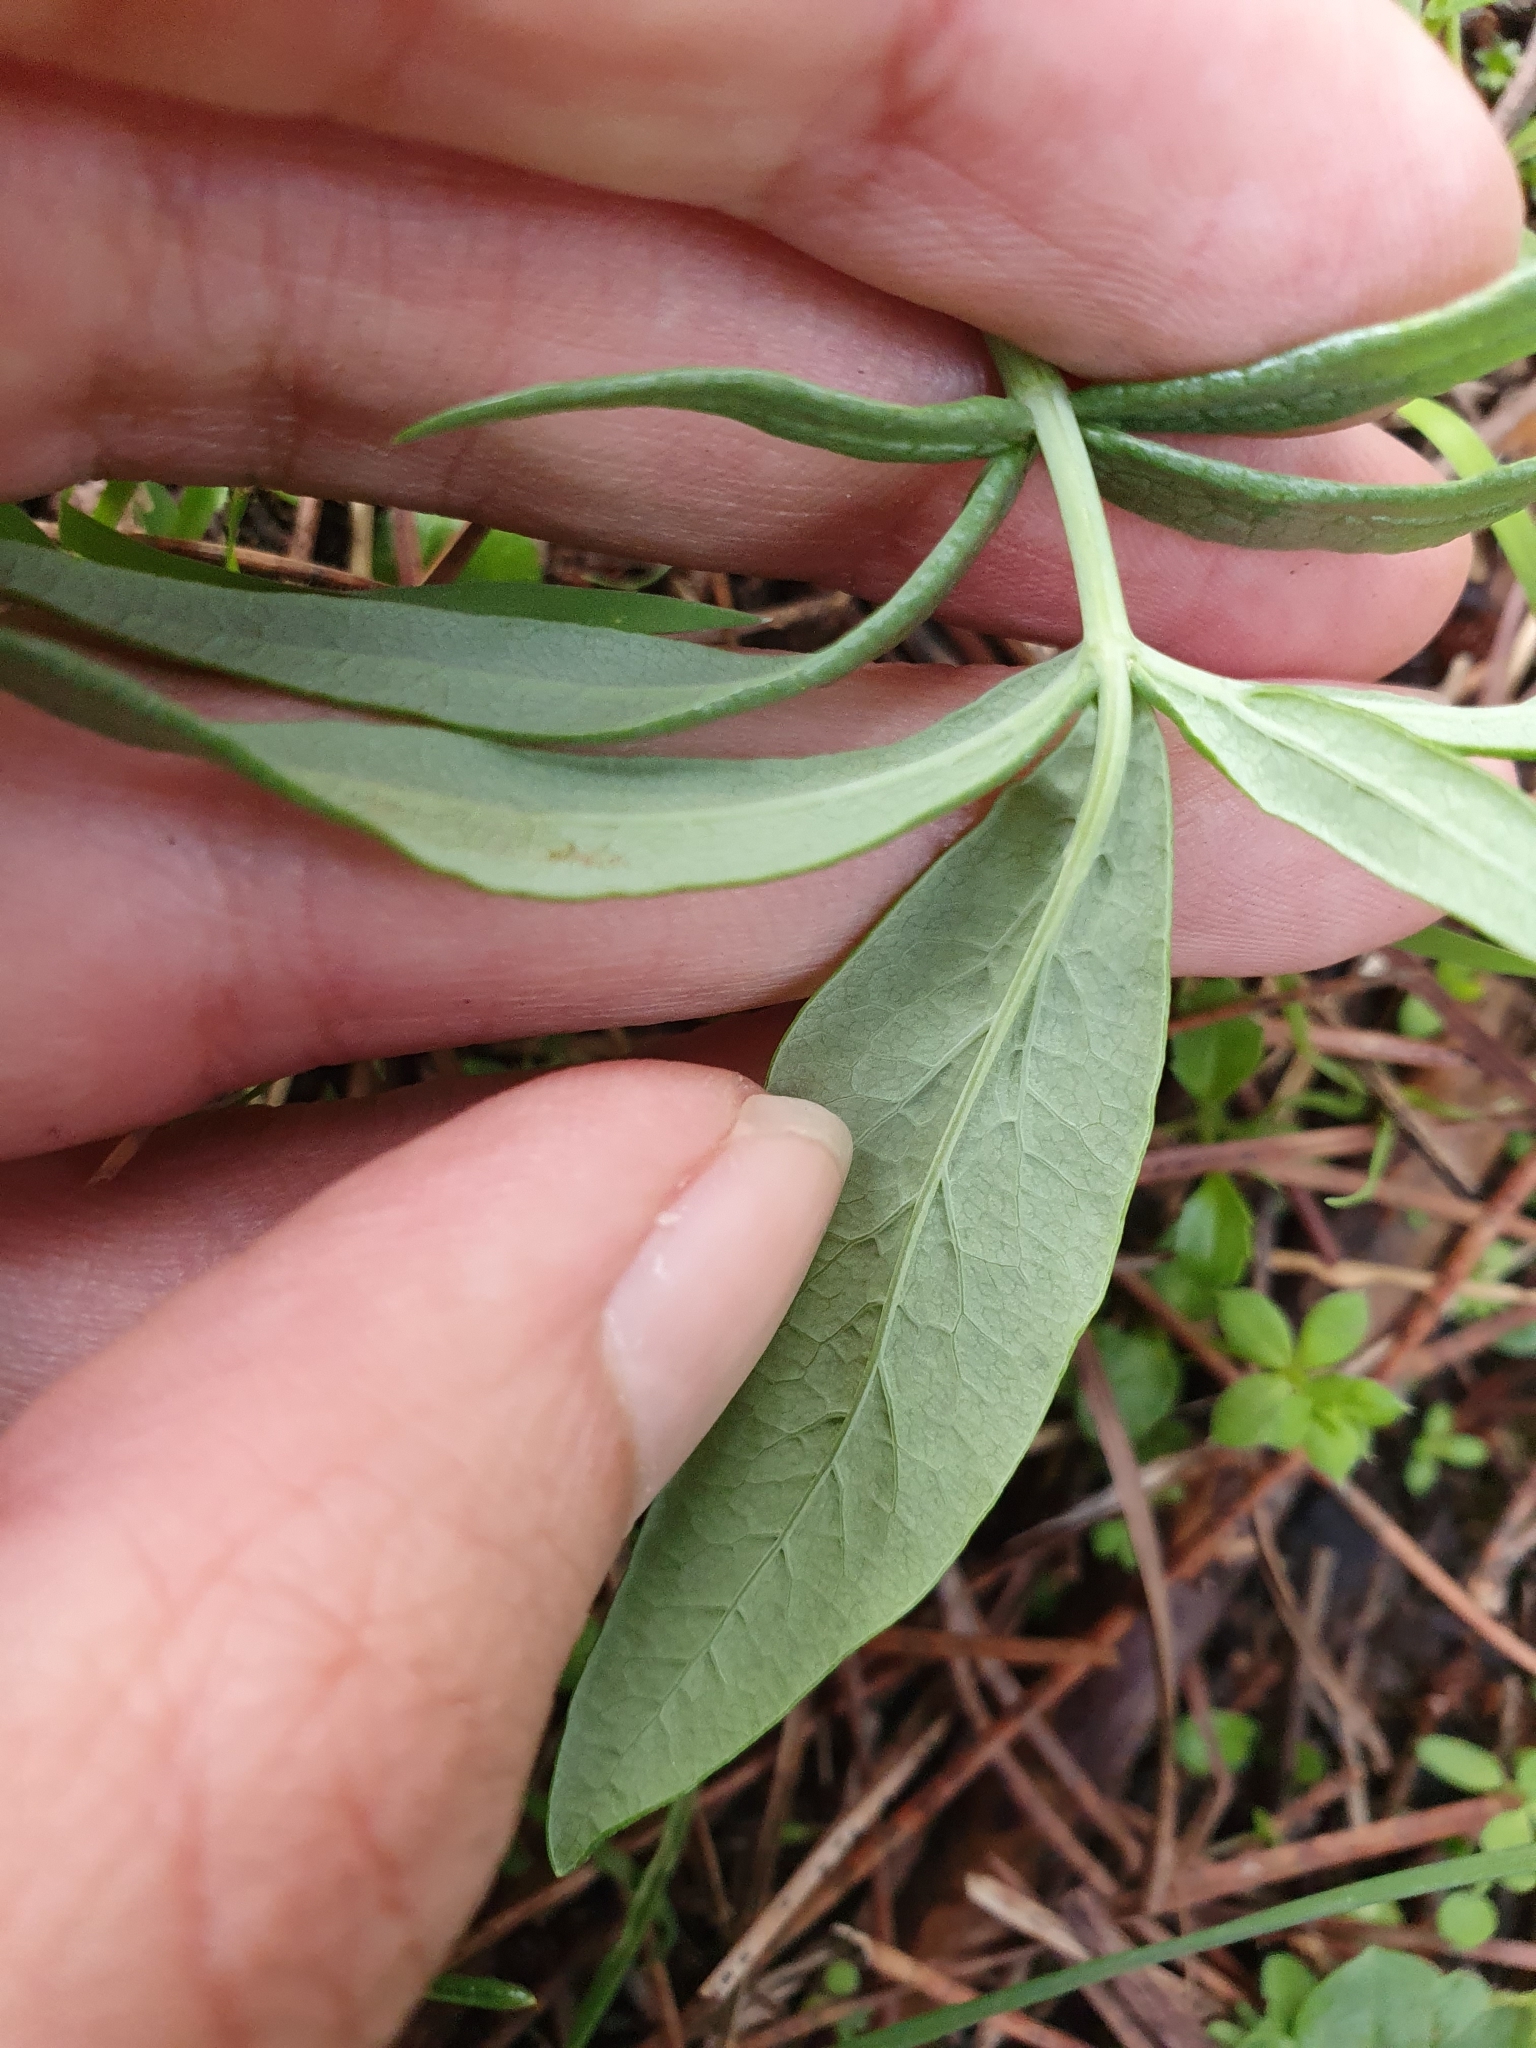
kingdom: Plantae
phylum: Tracheophyta
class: Magnoliopsida
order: Apiales
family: Apiaceae
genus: Thapsia
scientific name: Thapsia garganica
